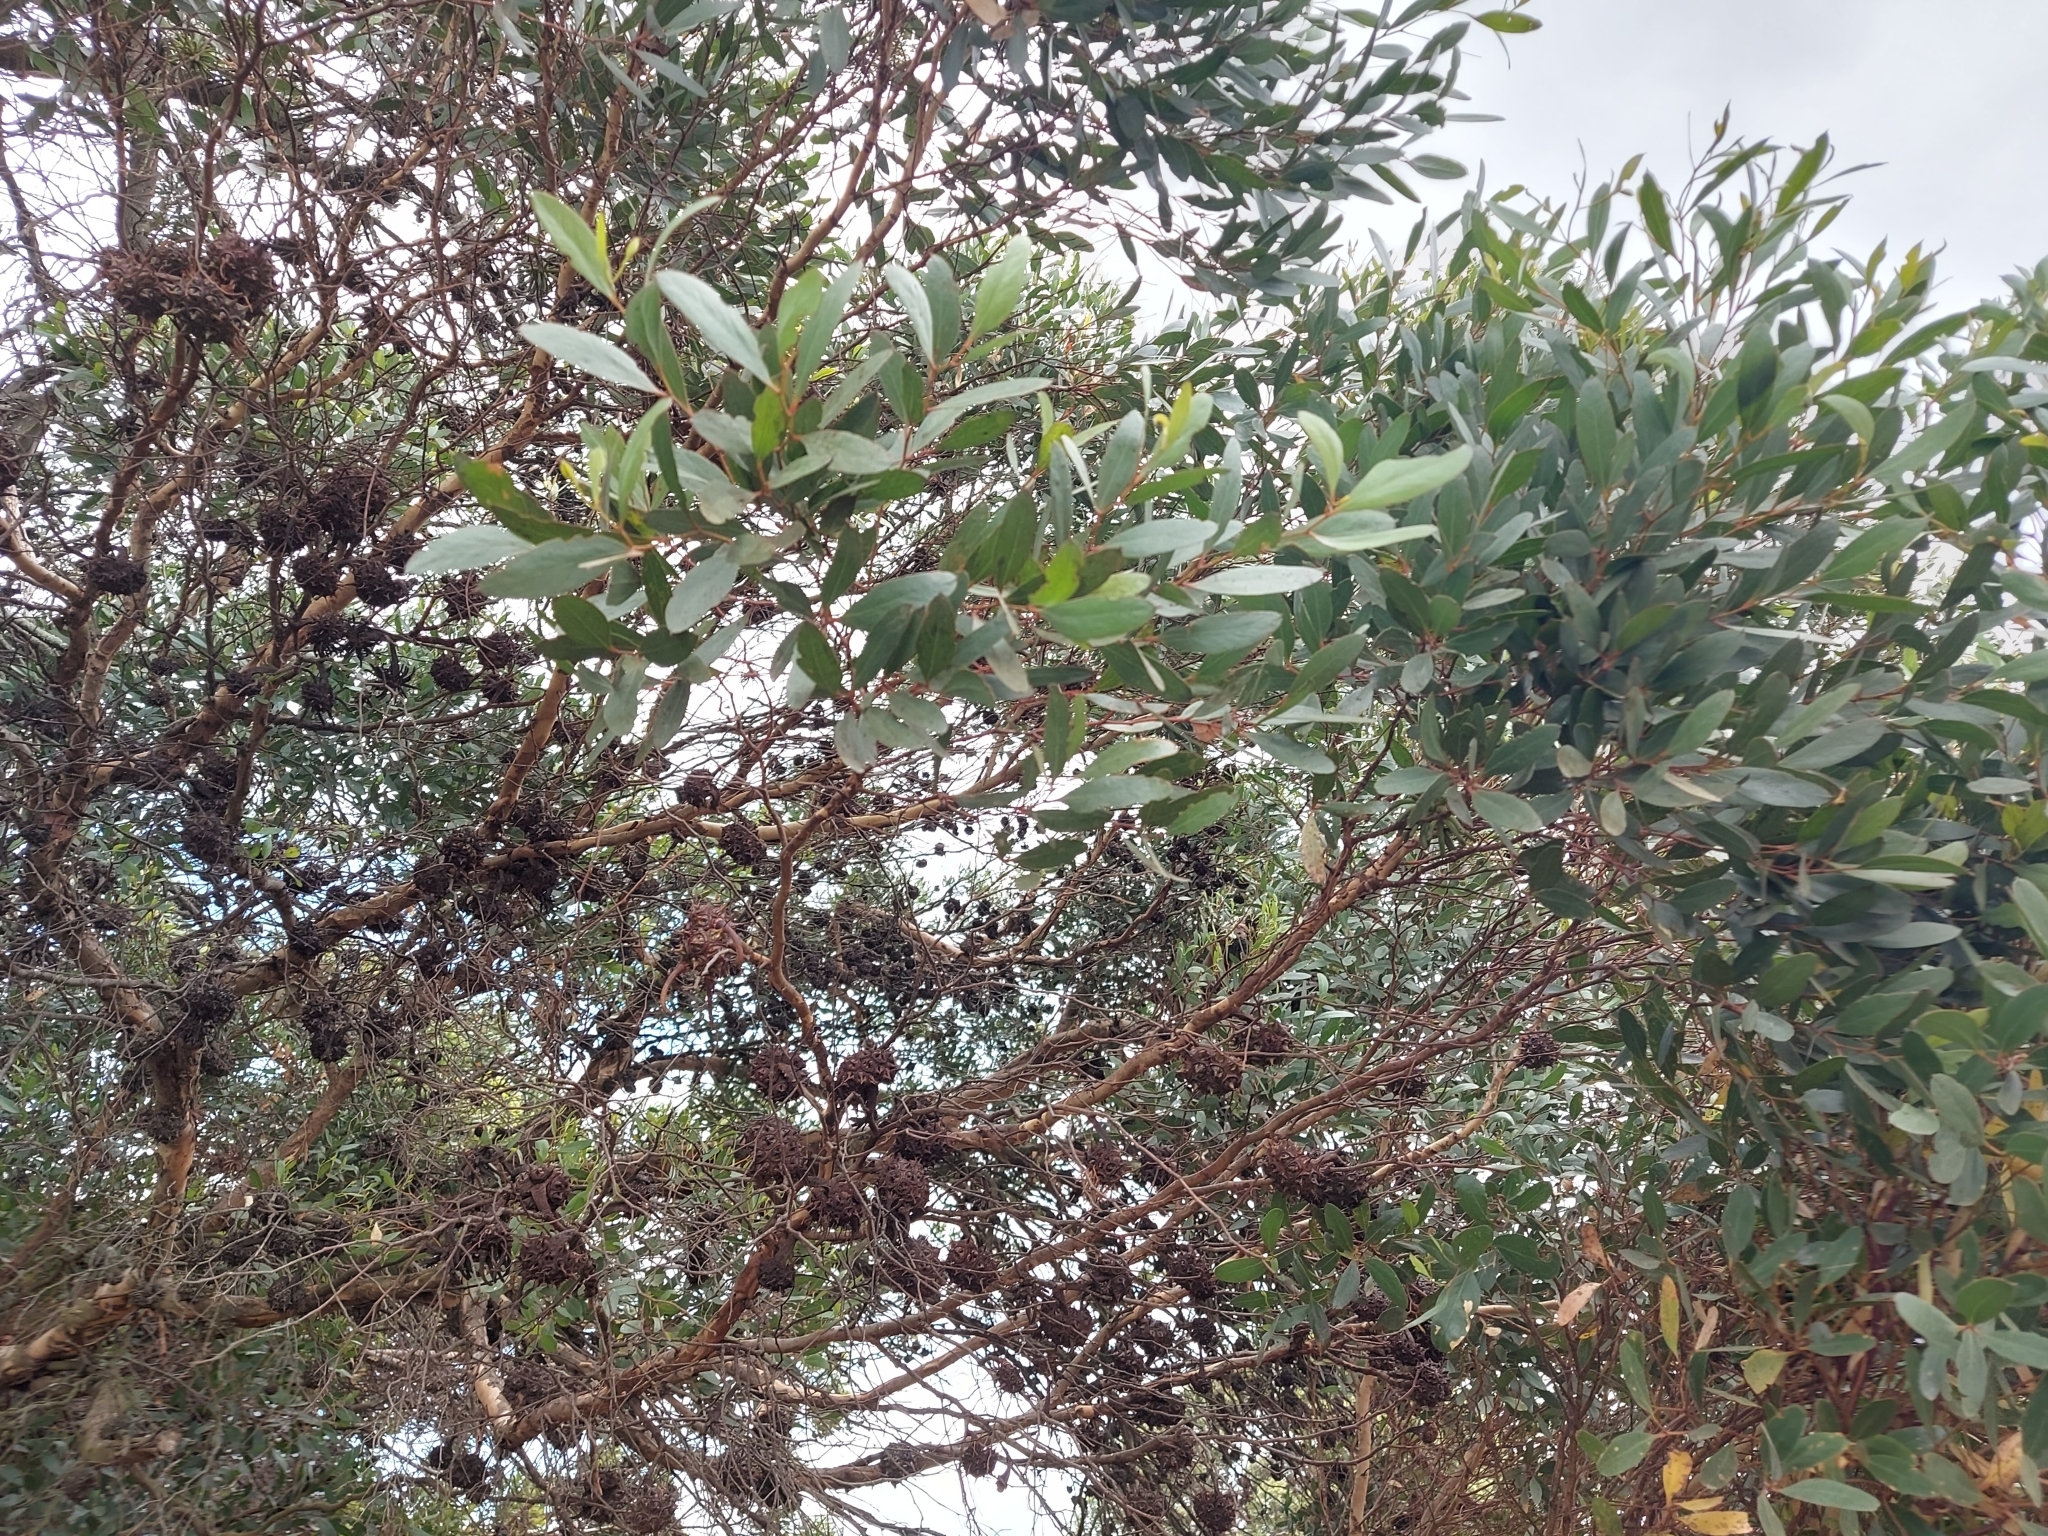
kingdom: Plantae
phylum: Tracheophyta
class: Magnoliopsida
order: Myrtales
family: Myrtaceae
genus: Eucalyptus
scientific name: Eucalyptus conferruminata
